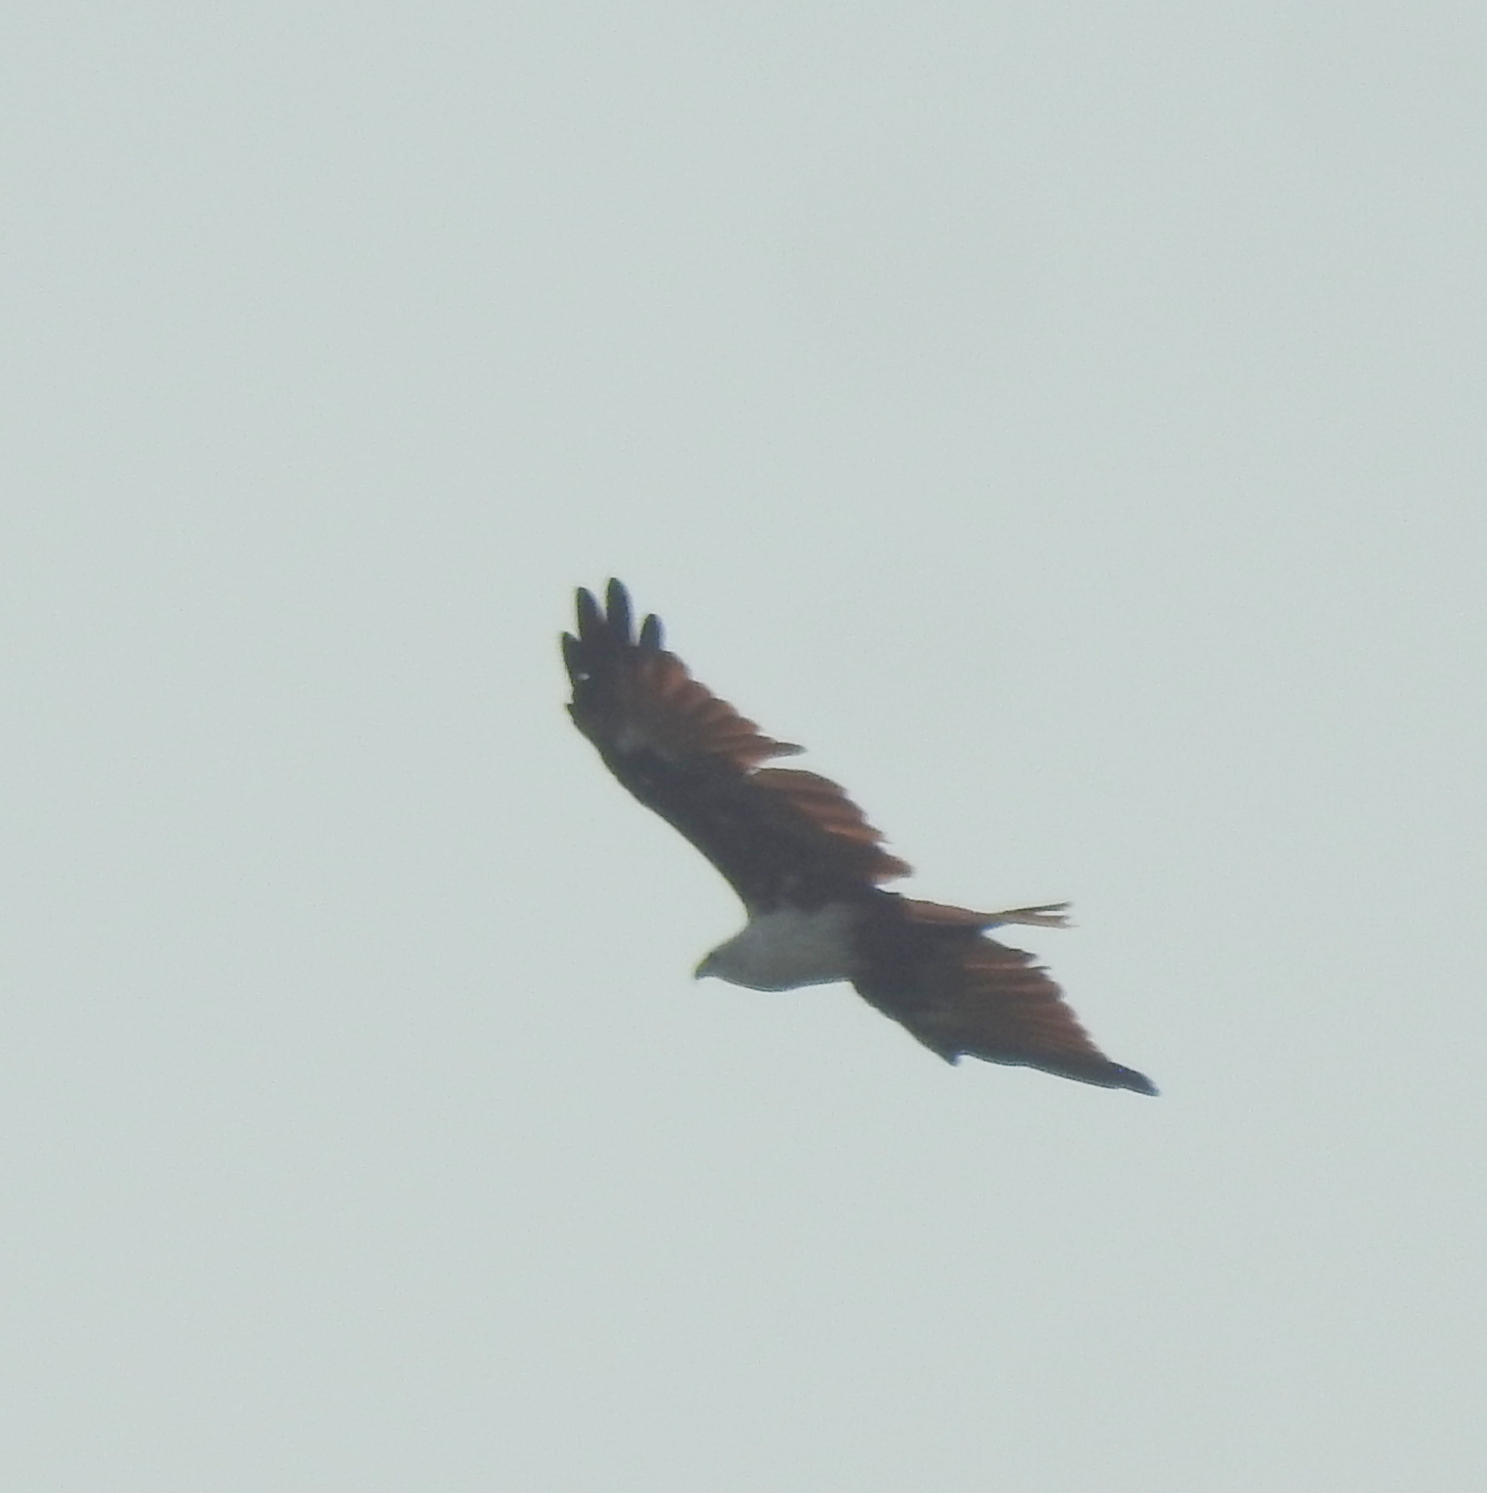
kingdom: Animalia
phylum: Chordata
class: Aves
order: Accipitriformes
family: Accipitridae
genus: Haliastur
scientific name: Haliastur indus
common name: Brahminy kite
